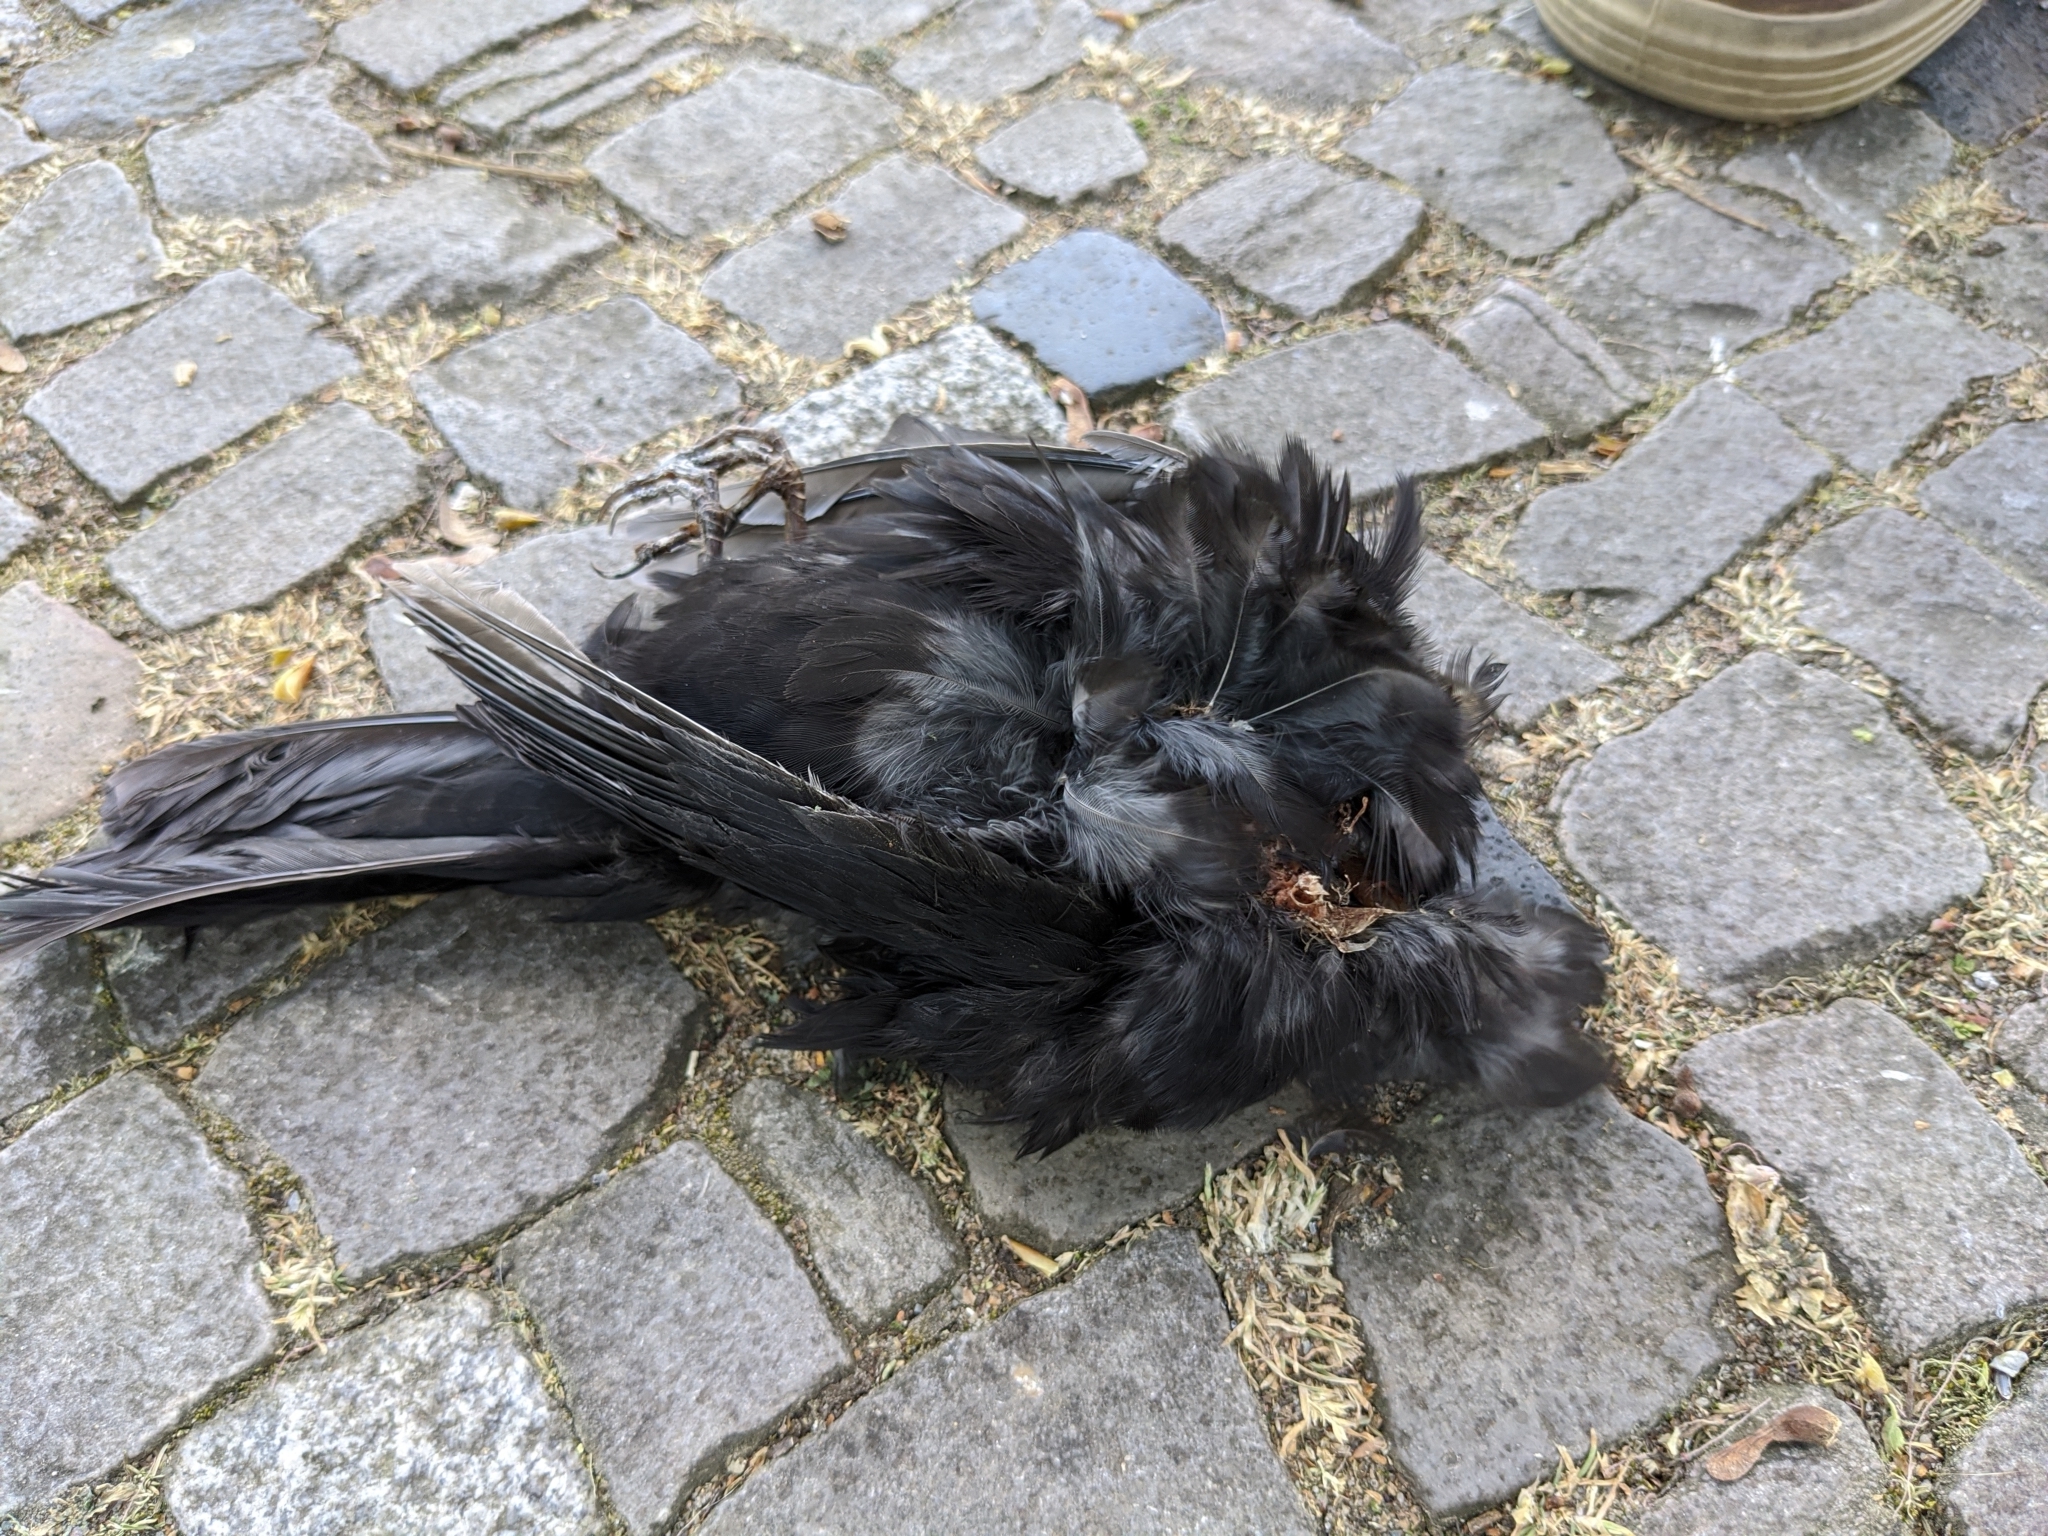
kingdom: Animalia
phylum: Chordata
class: Aves
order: Passeriformes
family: Turdidae
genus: Turdus
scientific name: Turdus merula
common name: Common blackbird
